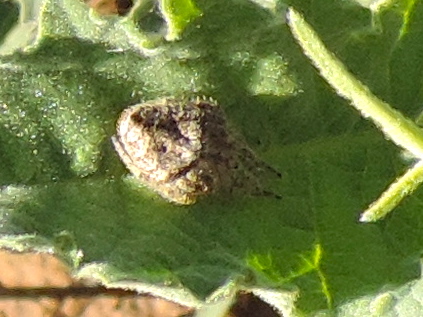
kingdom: Animalia
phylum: Arthropoda
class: Arachnida
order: Araneae
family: Araneidae
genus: Eriophora
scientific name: Eriophora
